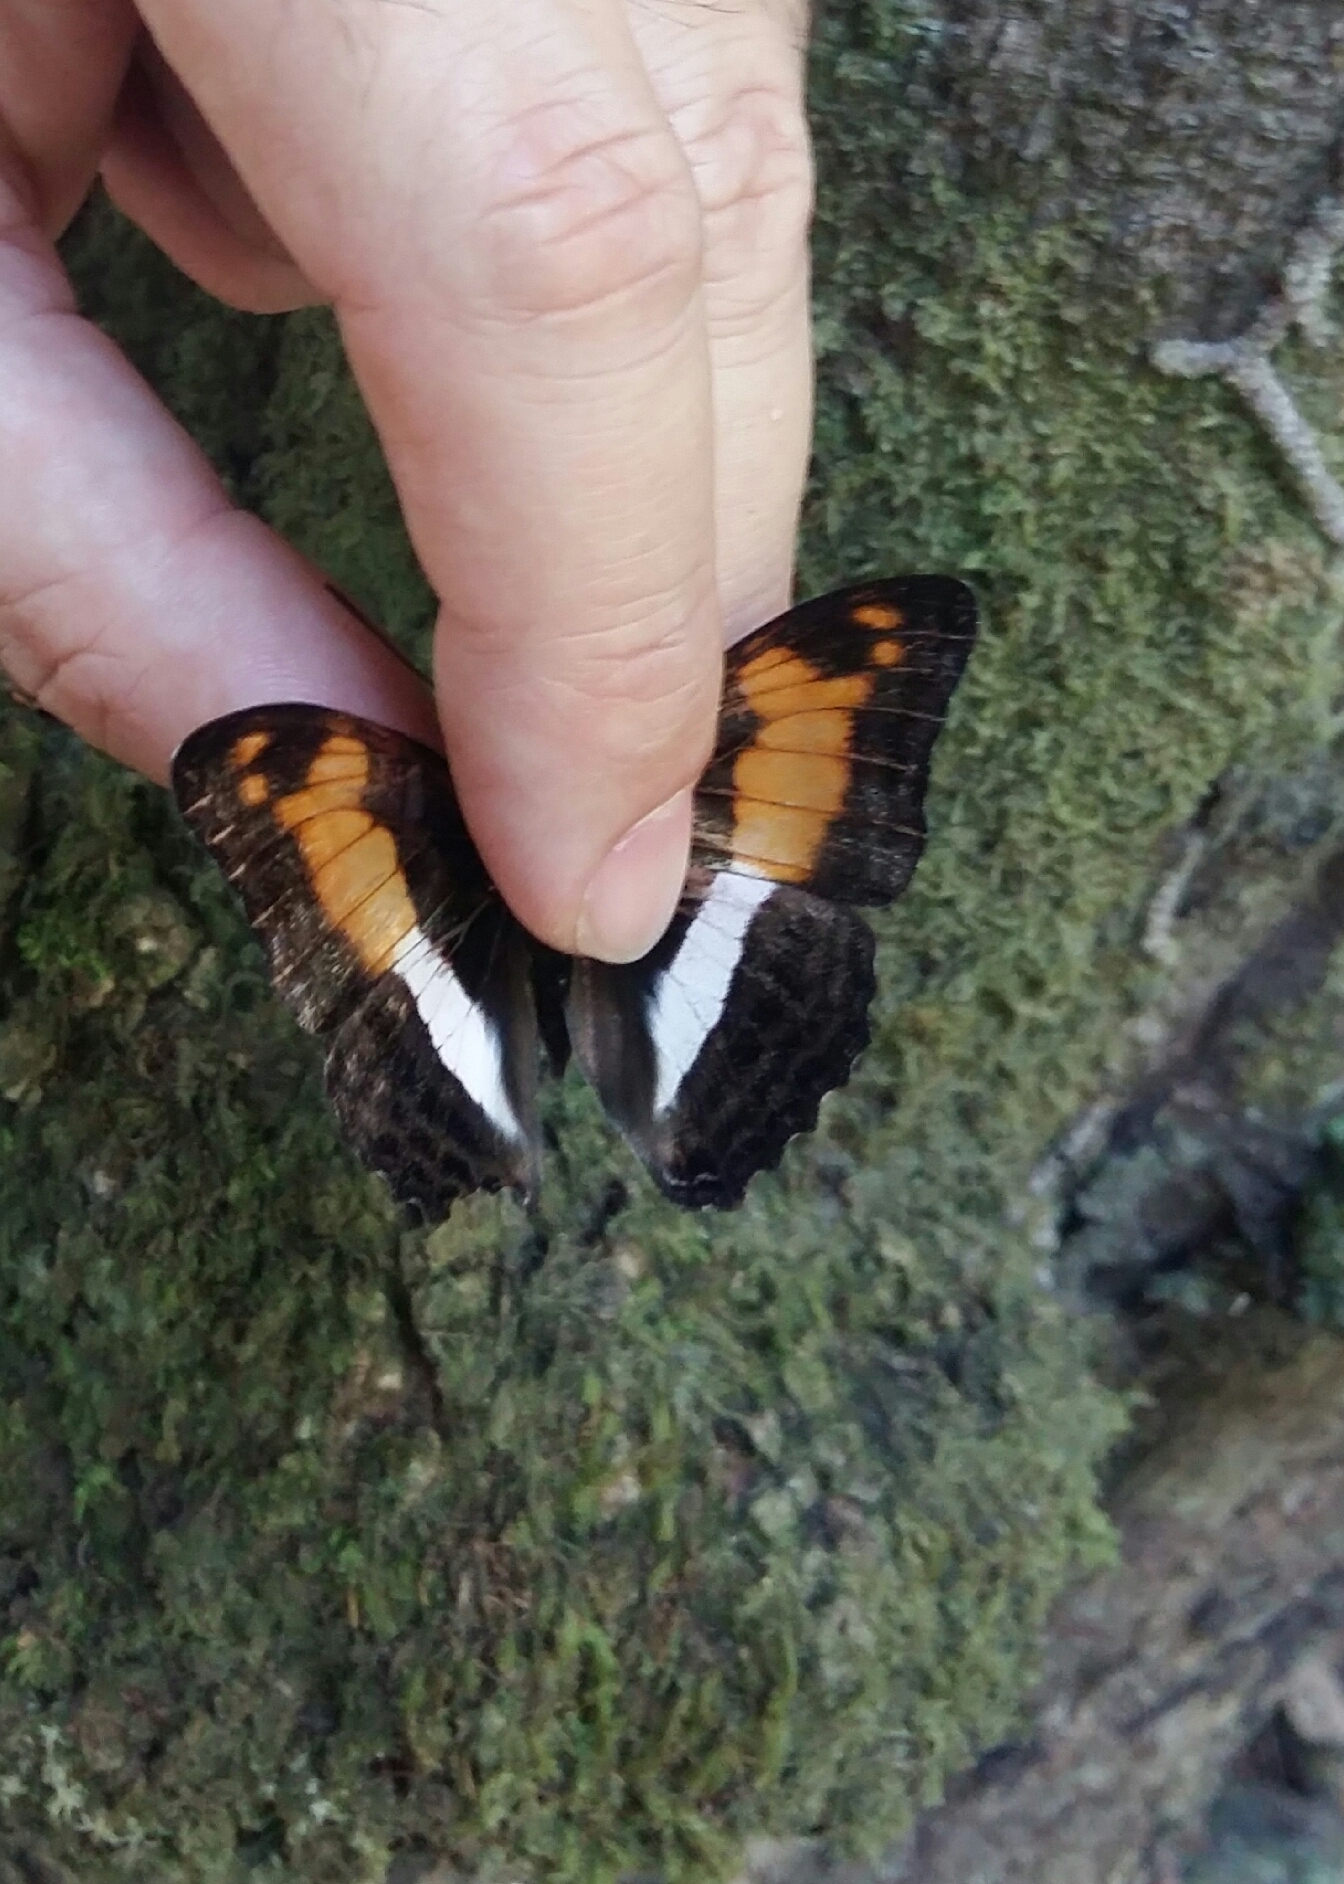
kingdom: Animalia
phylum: Arthropoda
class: Insecta
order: Lepidoptera
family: Nymphalidae
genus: Limenitis
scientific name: Limenitis phylaca
